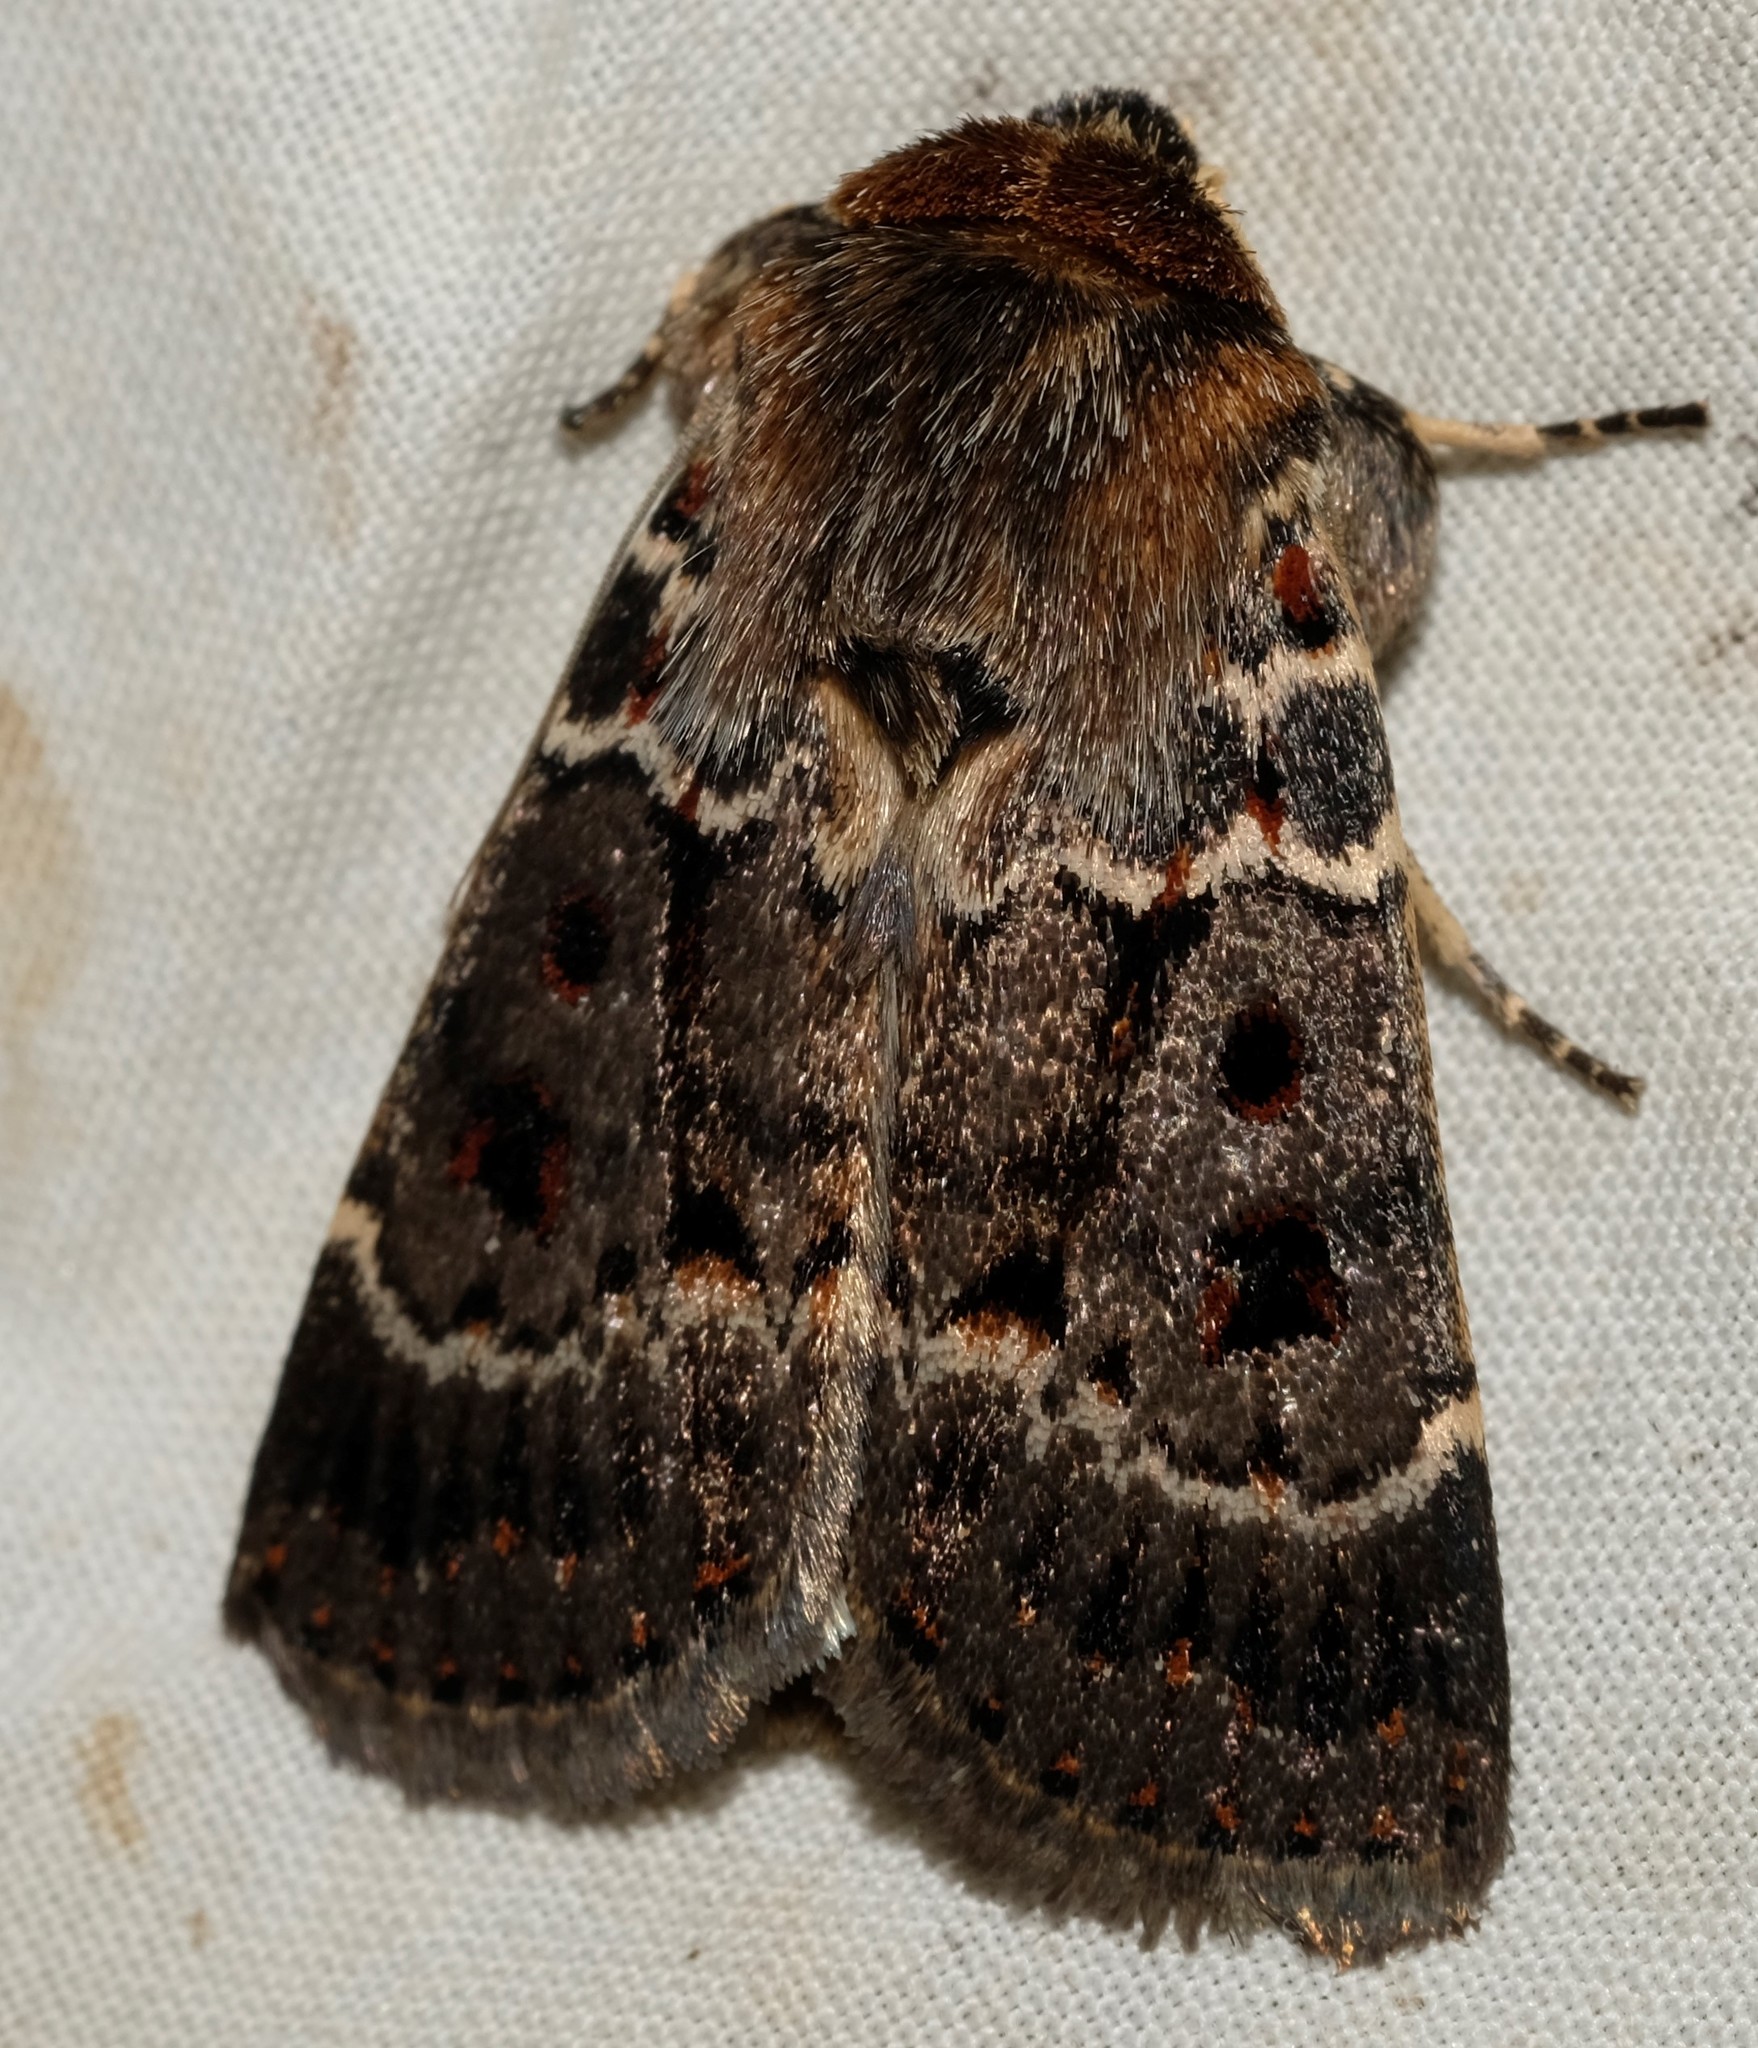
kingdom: Animalia
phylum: Arthropoda
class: Insecta
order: Lepidoptera
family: Noctuidae
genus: Proteuxoa
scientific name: Proteuxoa sanguinipuncta
